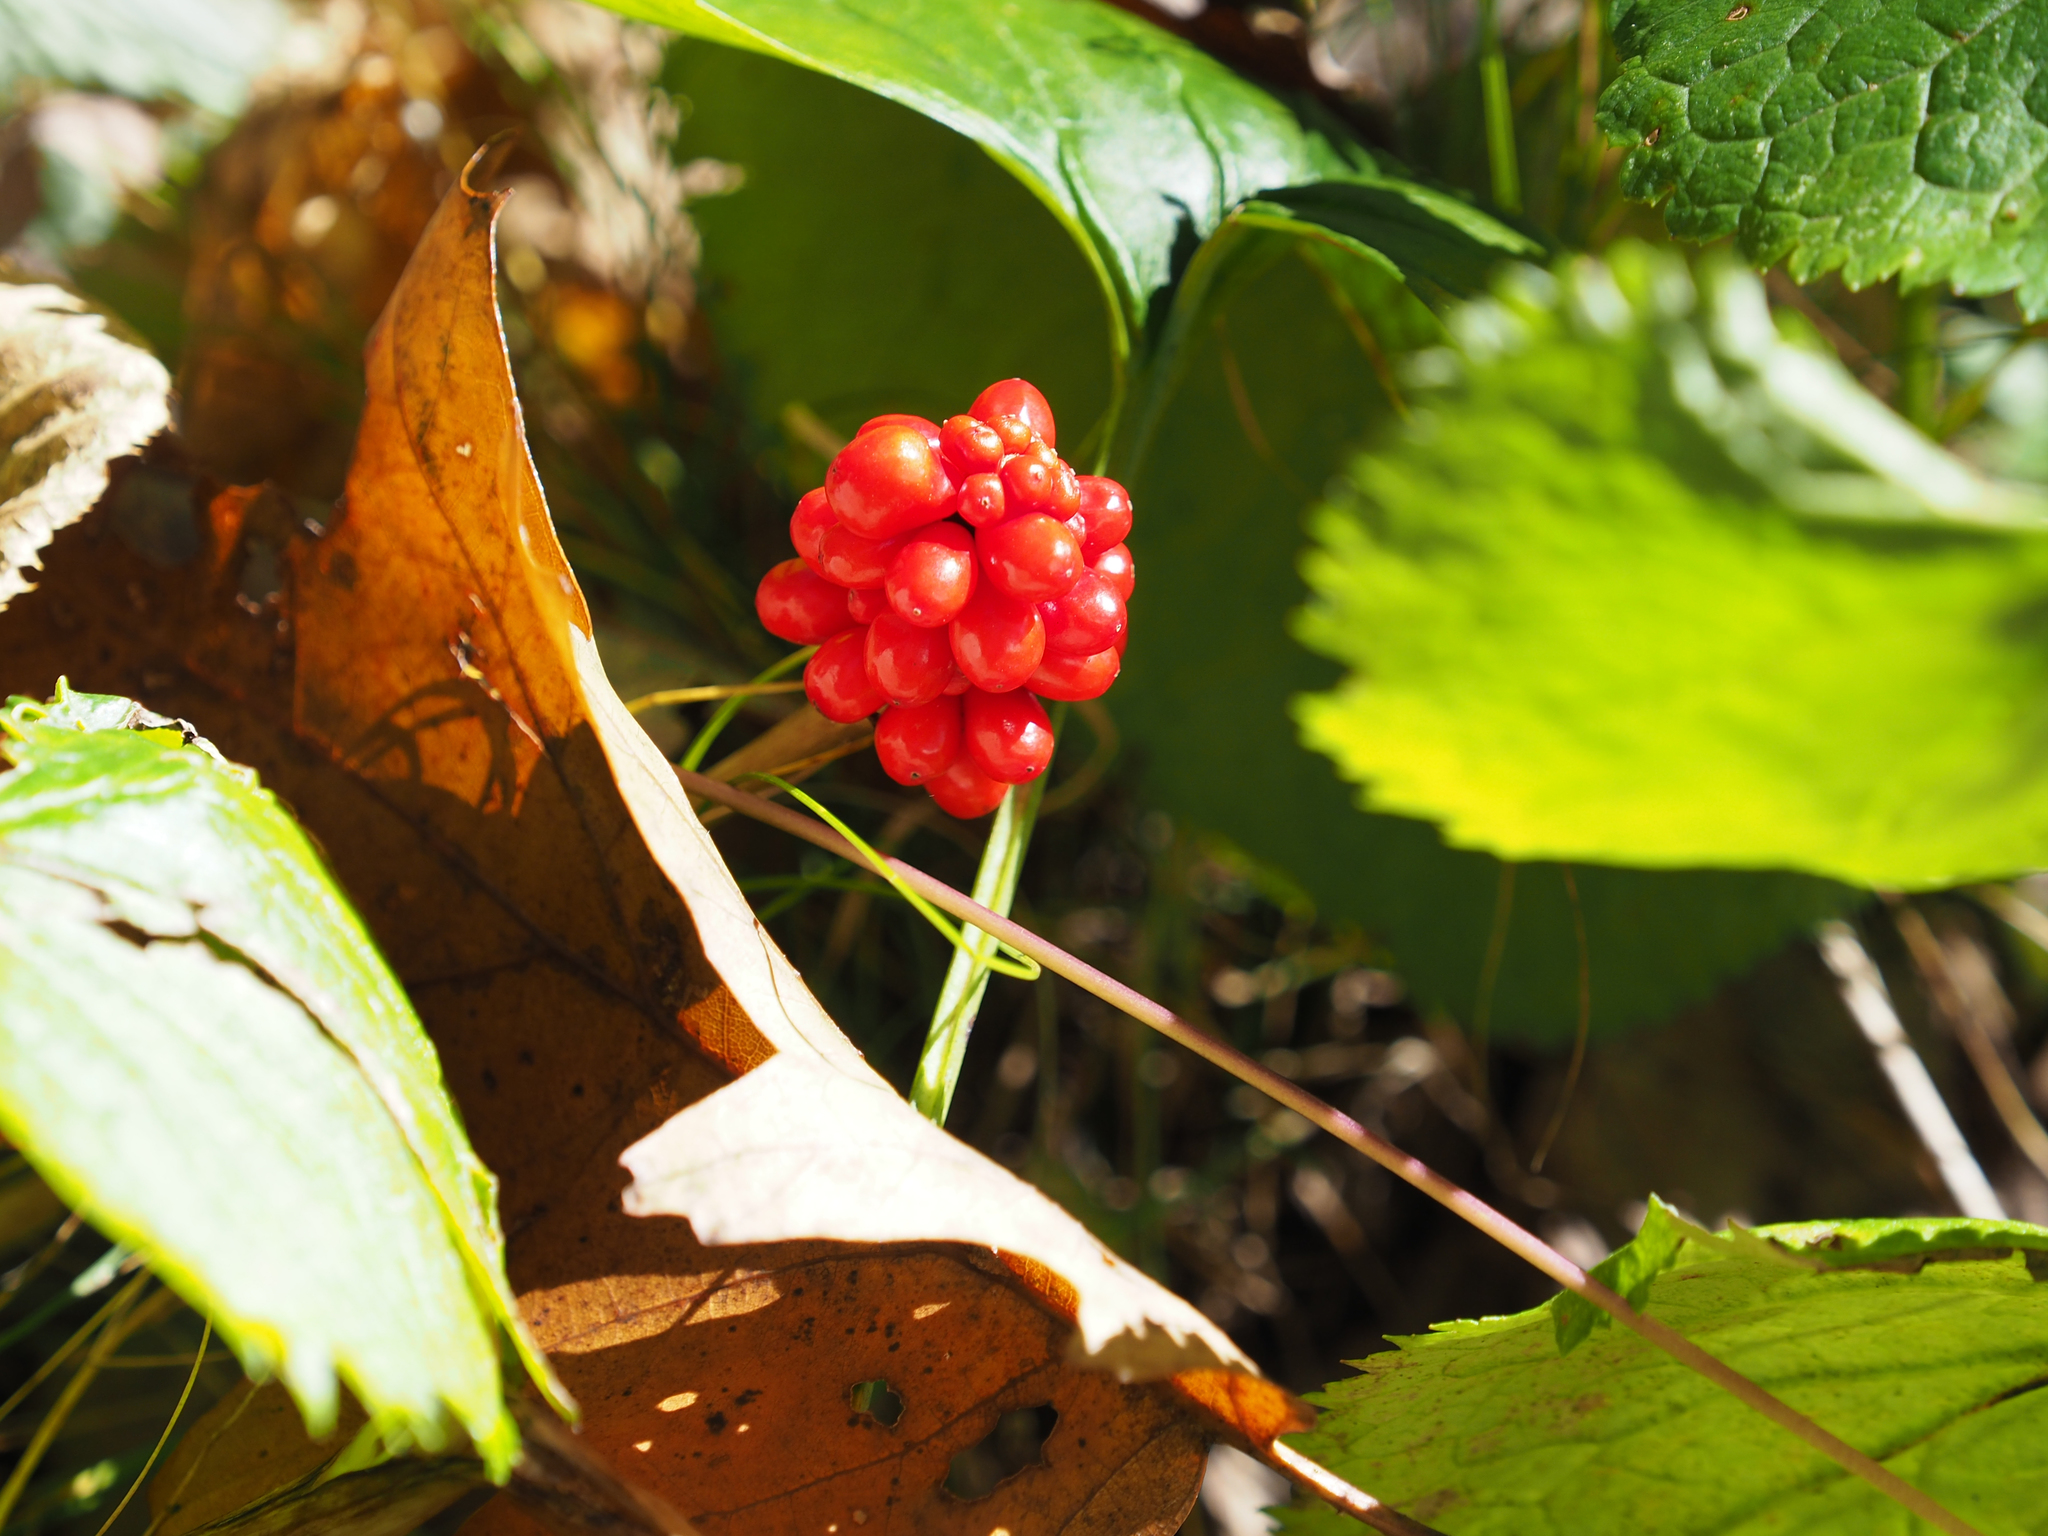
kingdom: Plantae
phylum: Tracheophyta
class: Liliopsida
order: Alismatales
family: Araceae
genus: Arisaema
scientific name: Arisaema triphyllum
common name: Jack-in-the-pulpit
